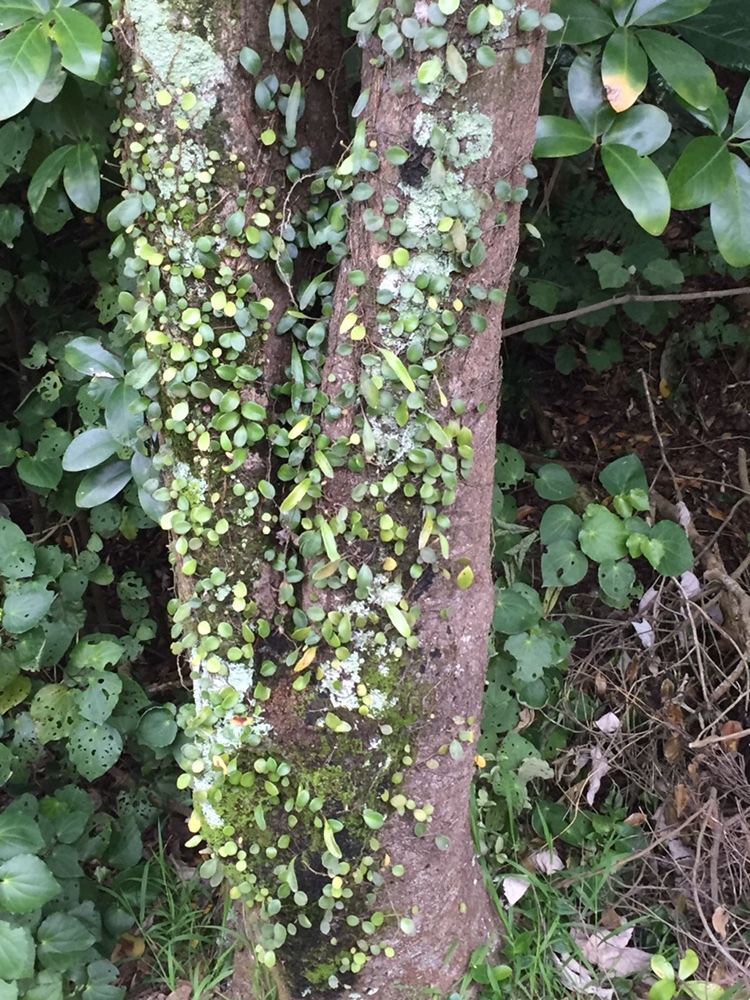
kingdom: Plantae
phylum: Tracheophyta
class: Polypodiopsida
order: Polypodiales
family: Polypodiaceae
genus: Pyrrosia
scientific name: Pyrrosia eleagnifolia
